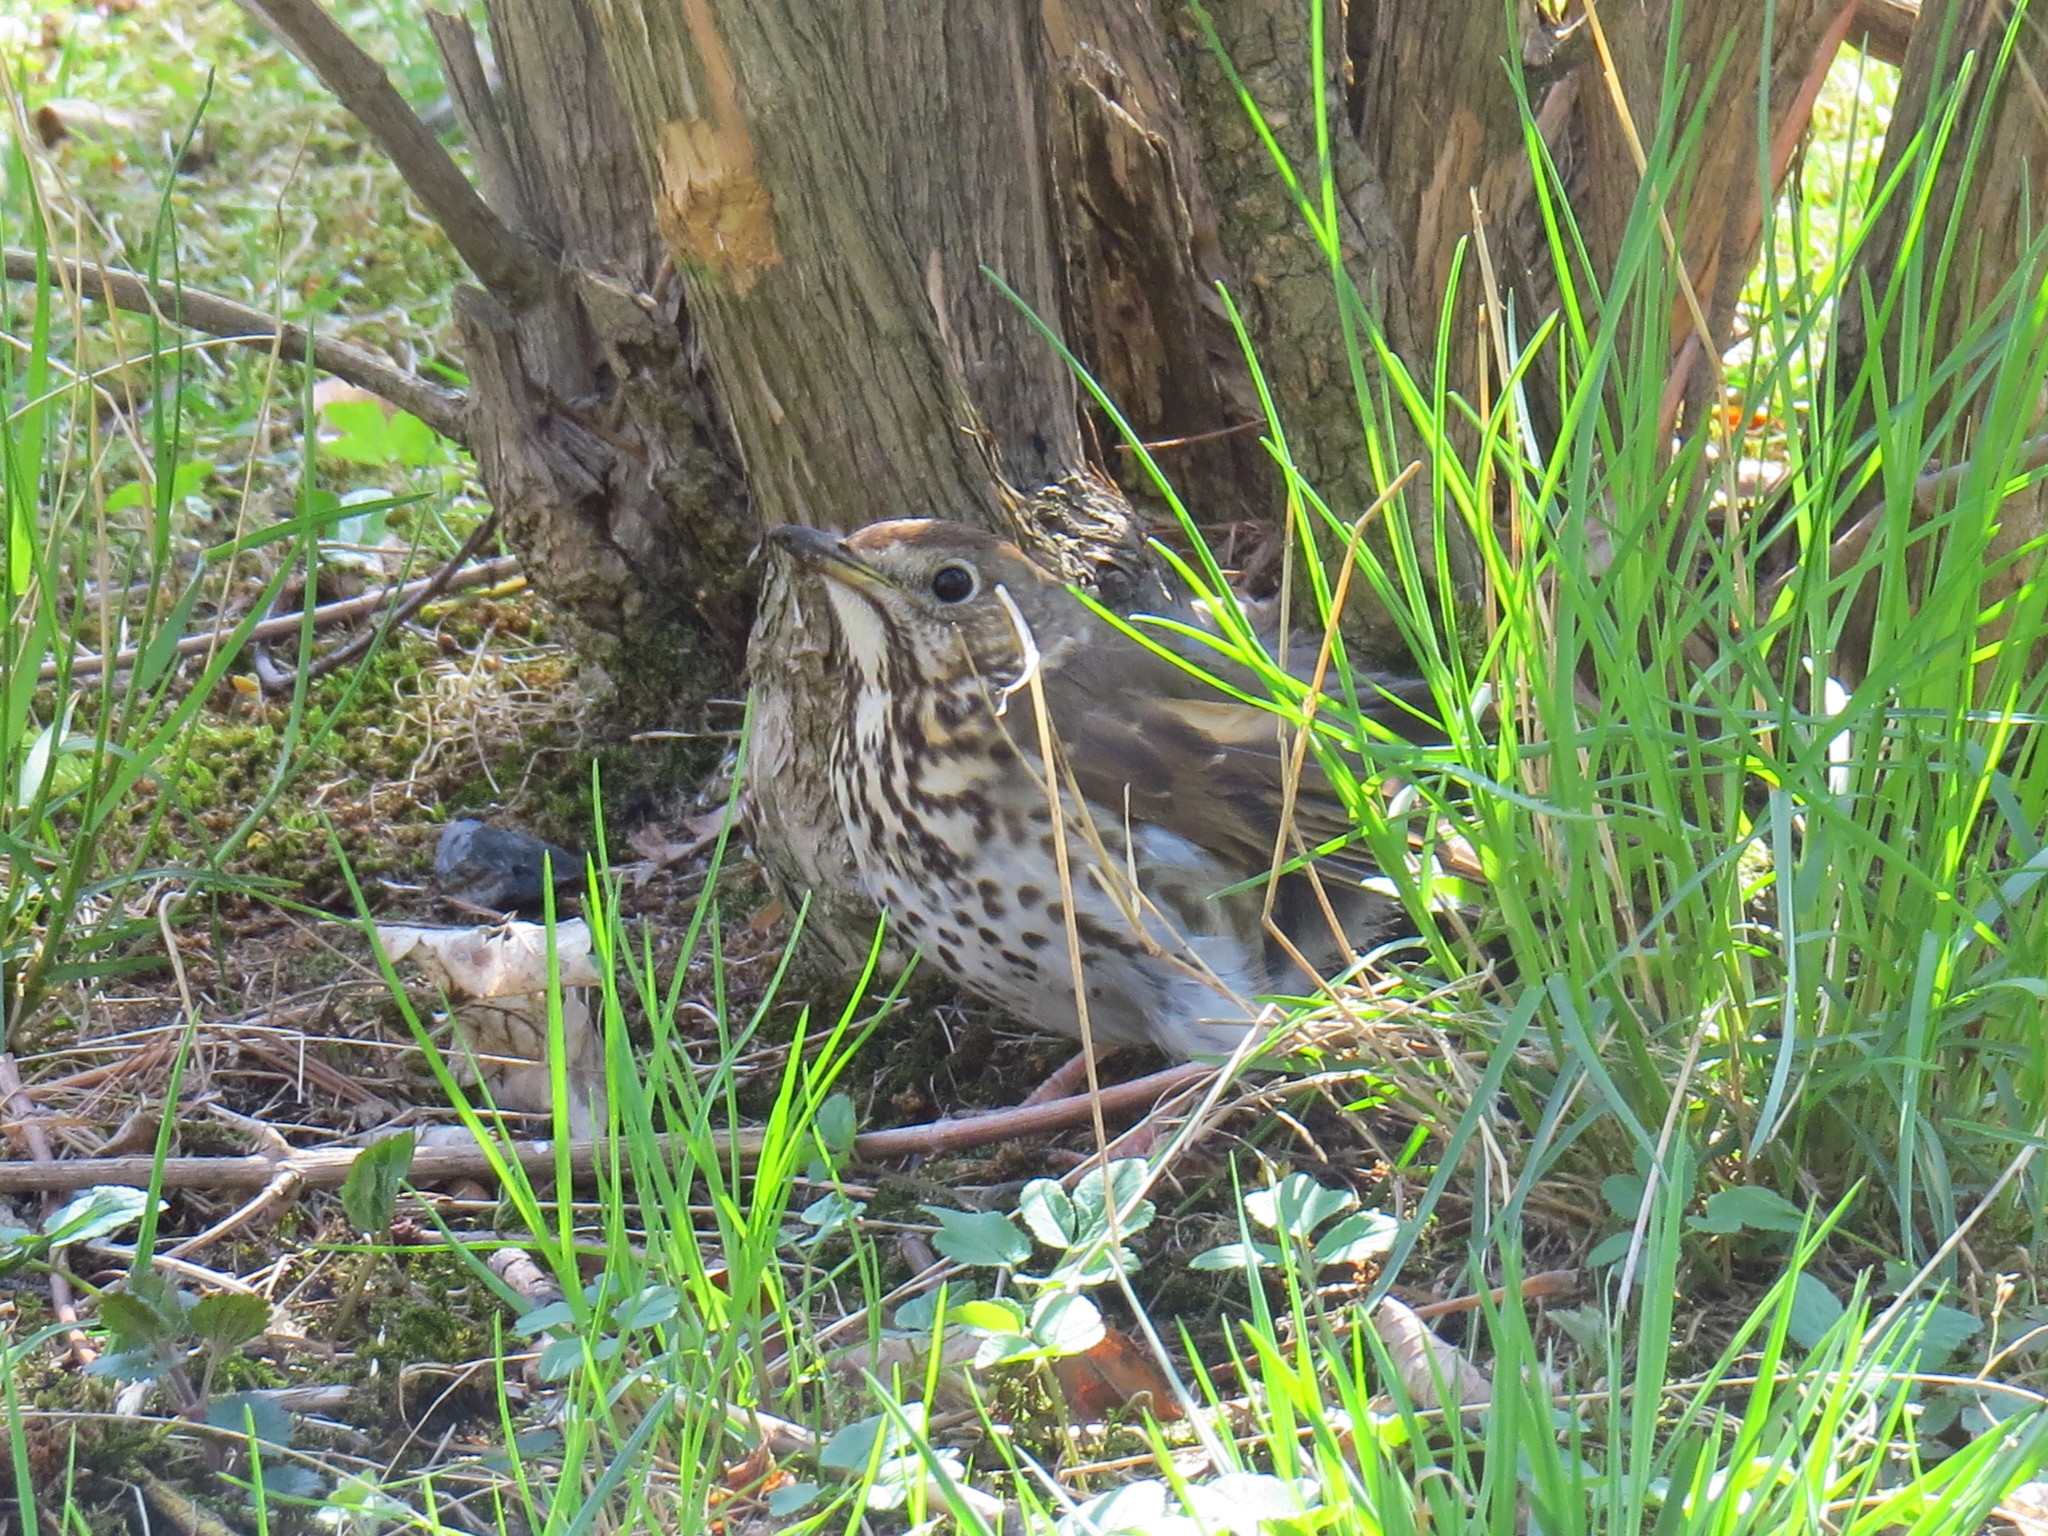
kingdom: Animalia
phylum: Chordata
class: Aves
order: Passeriformes
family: Turdidae
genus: Turdus
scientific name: Turdus philomelos
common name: Song thrush
